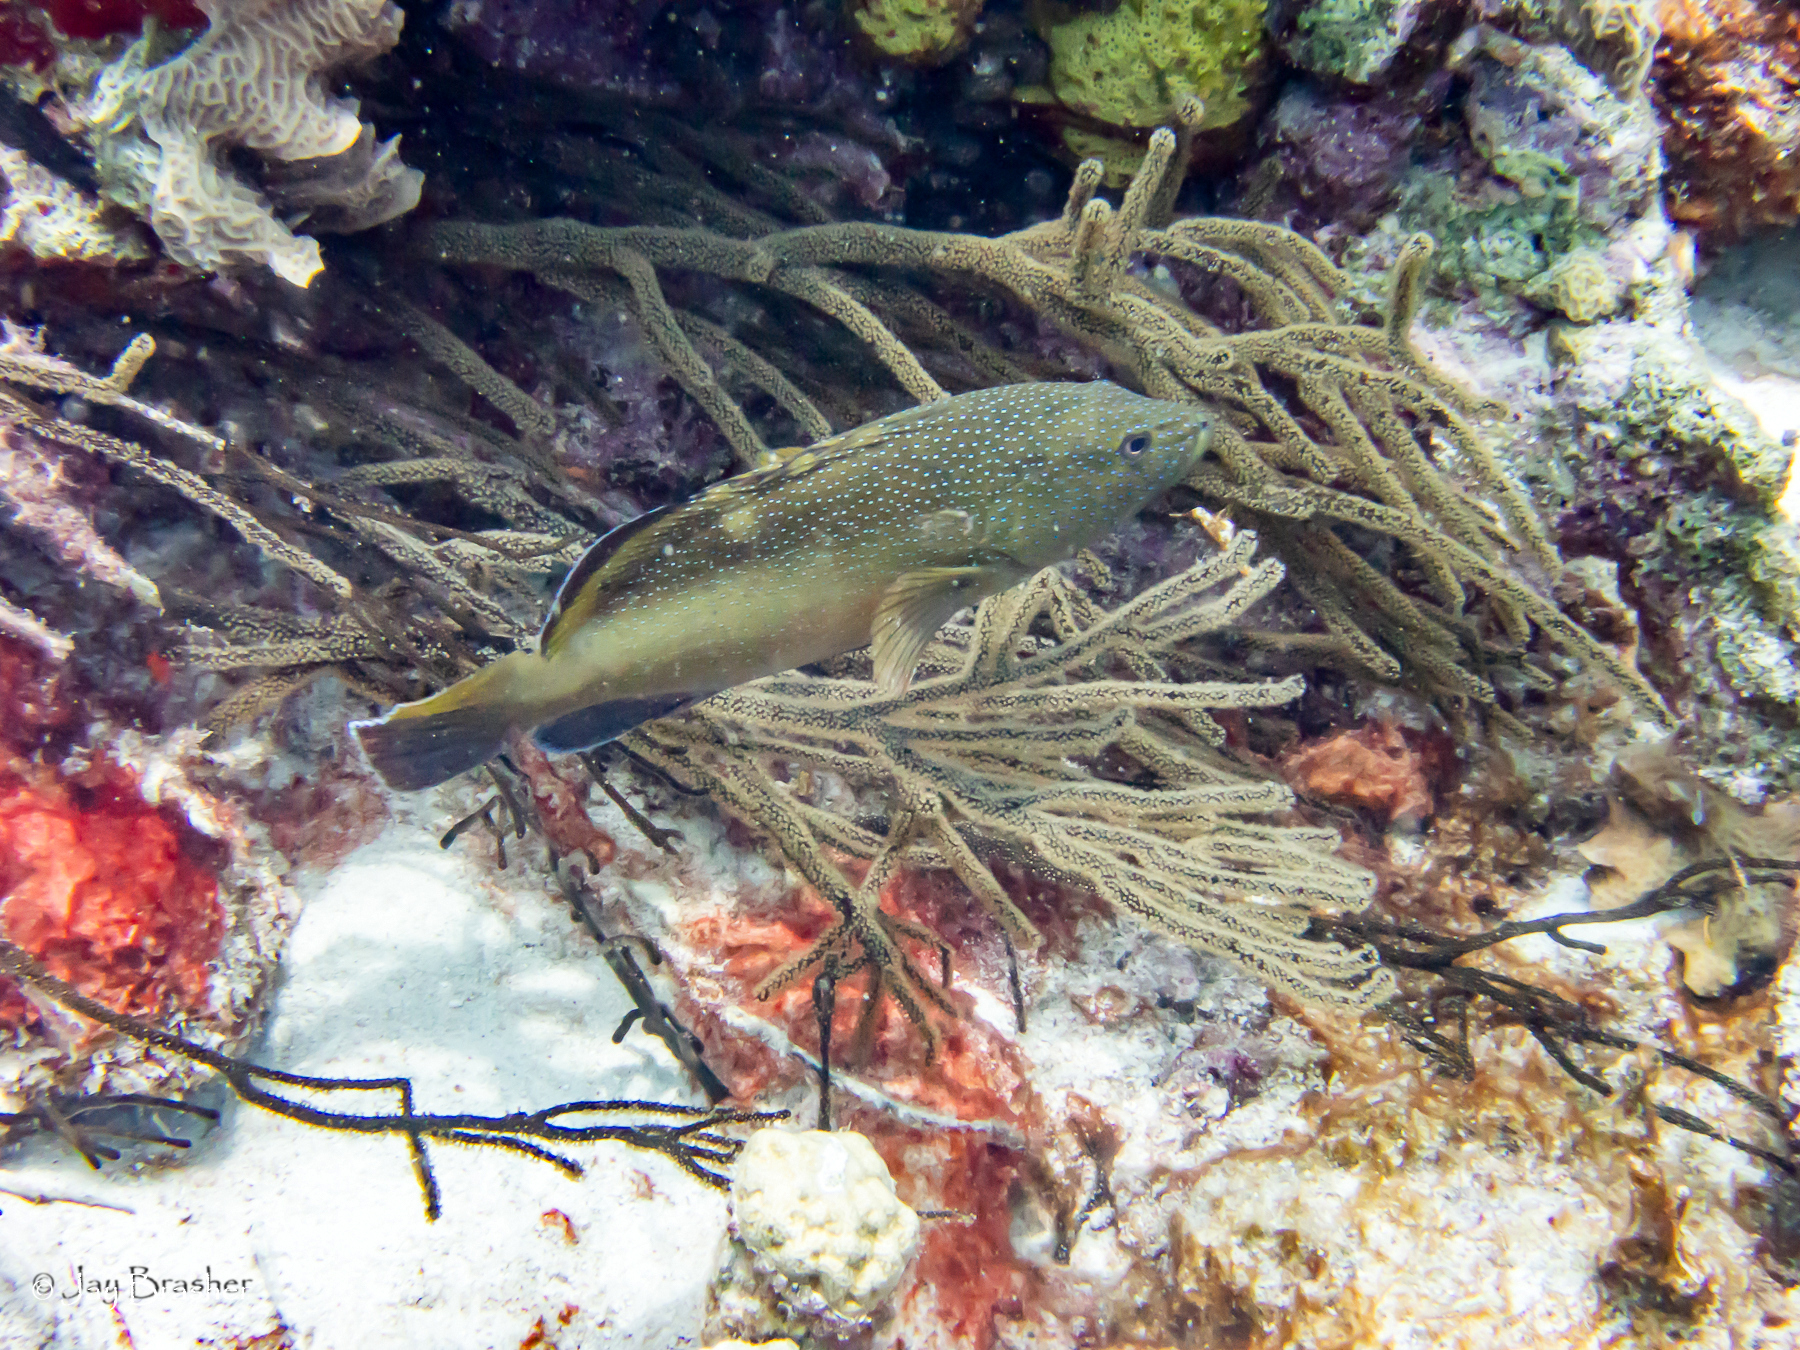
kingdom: Animalia
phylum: Chordata
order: Perciformes
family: Serranidae
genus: Cephalopholis
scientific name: Cephalopholis fulva
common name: Butterfish
